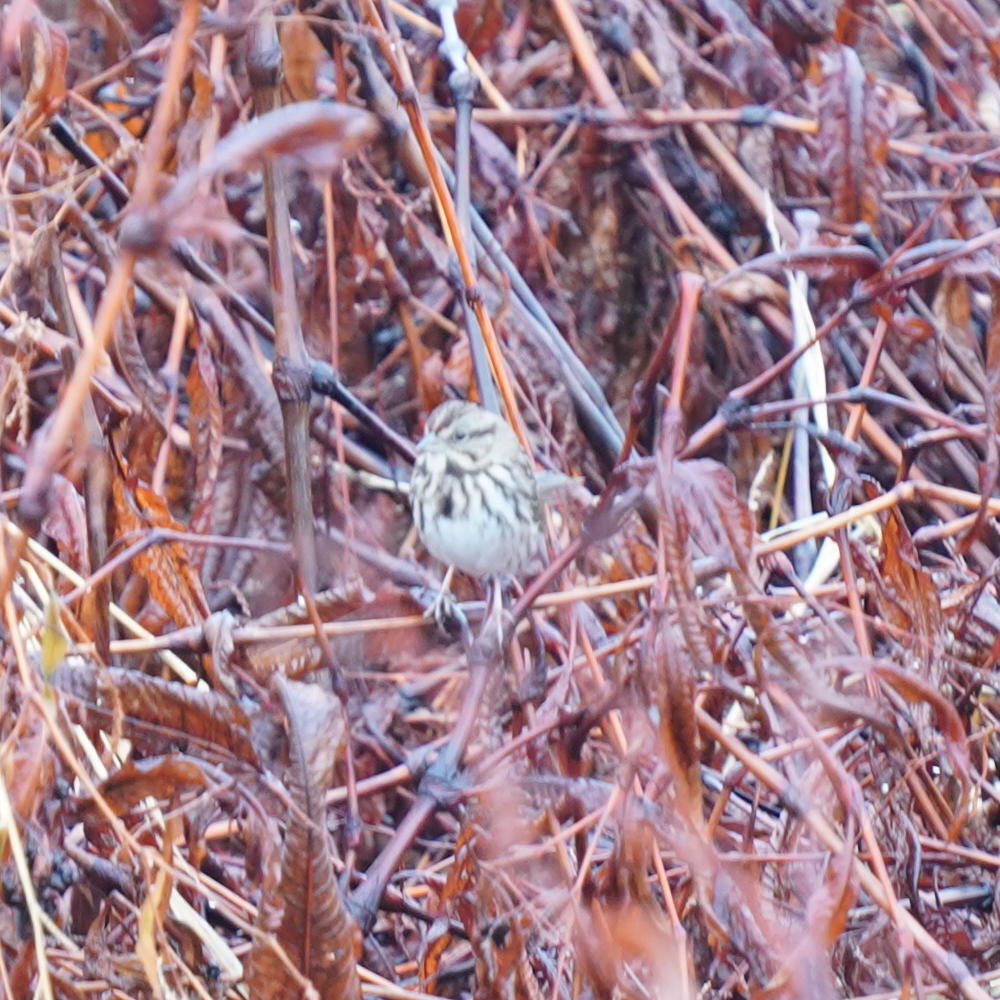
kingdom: Animalia
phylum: Chordata
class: Aves
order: Passeriformes
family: Passerellidae
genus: Melospiza
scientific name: Melospiza melodia
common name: Song sparrow
